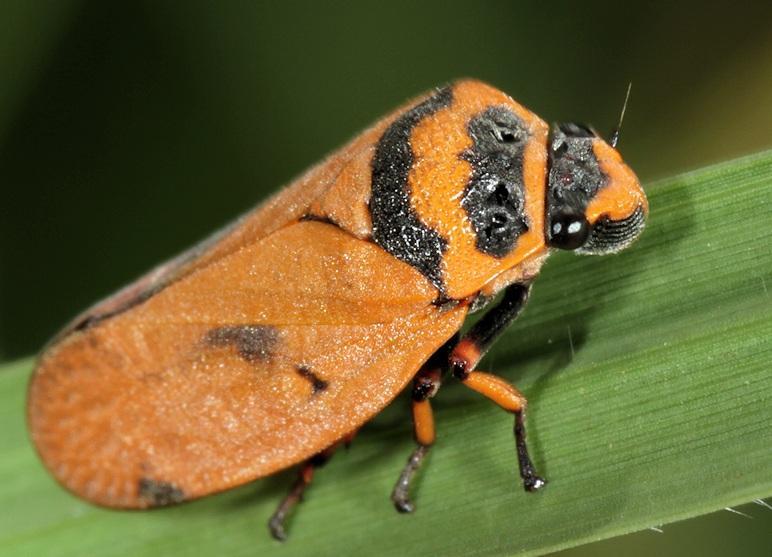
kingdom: Animalia
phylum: Arthropoda
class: Insecta
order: Hemiptera
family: Cercopidae
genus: Locris
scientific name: Locris auripennis
